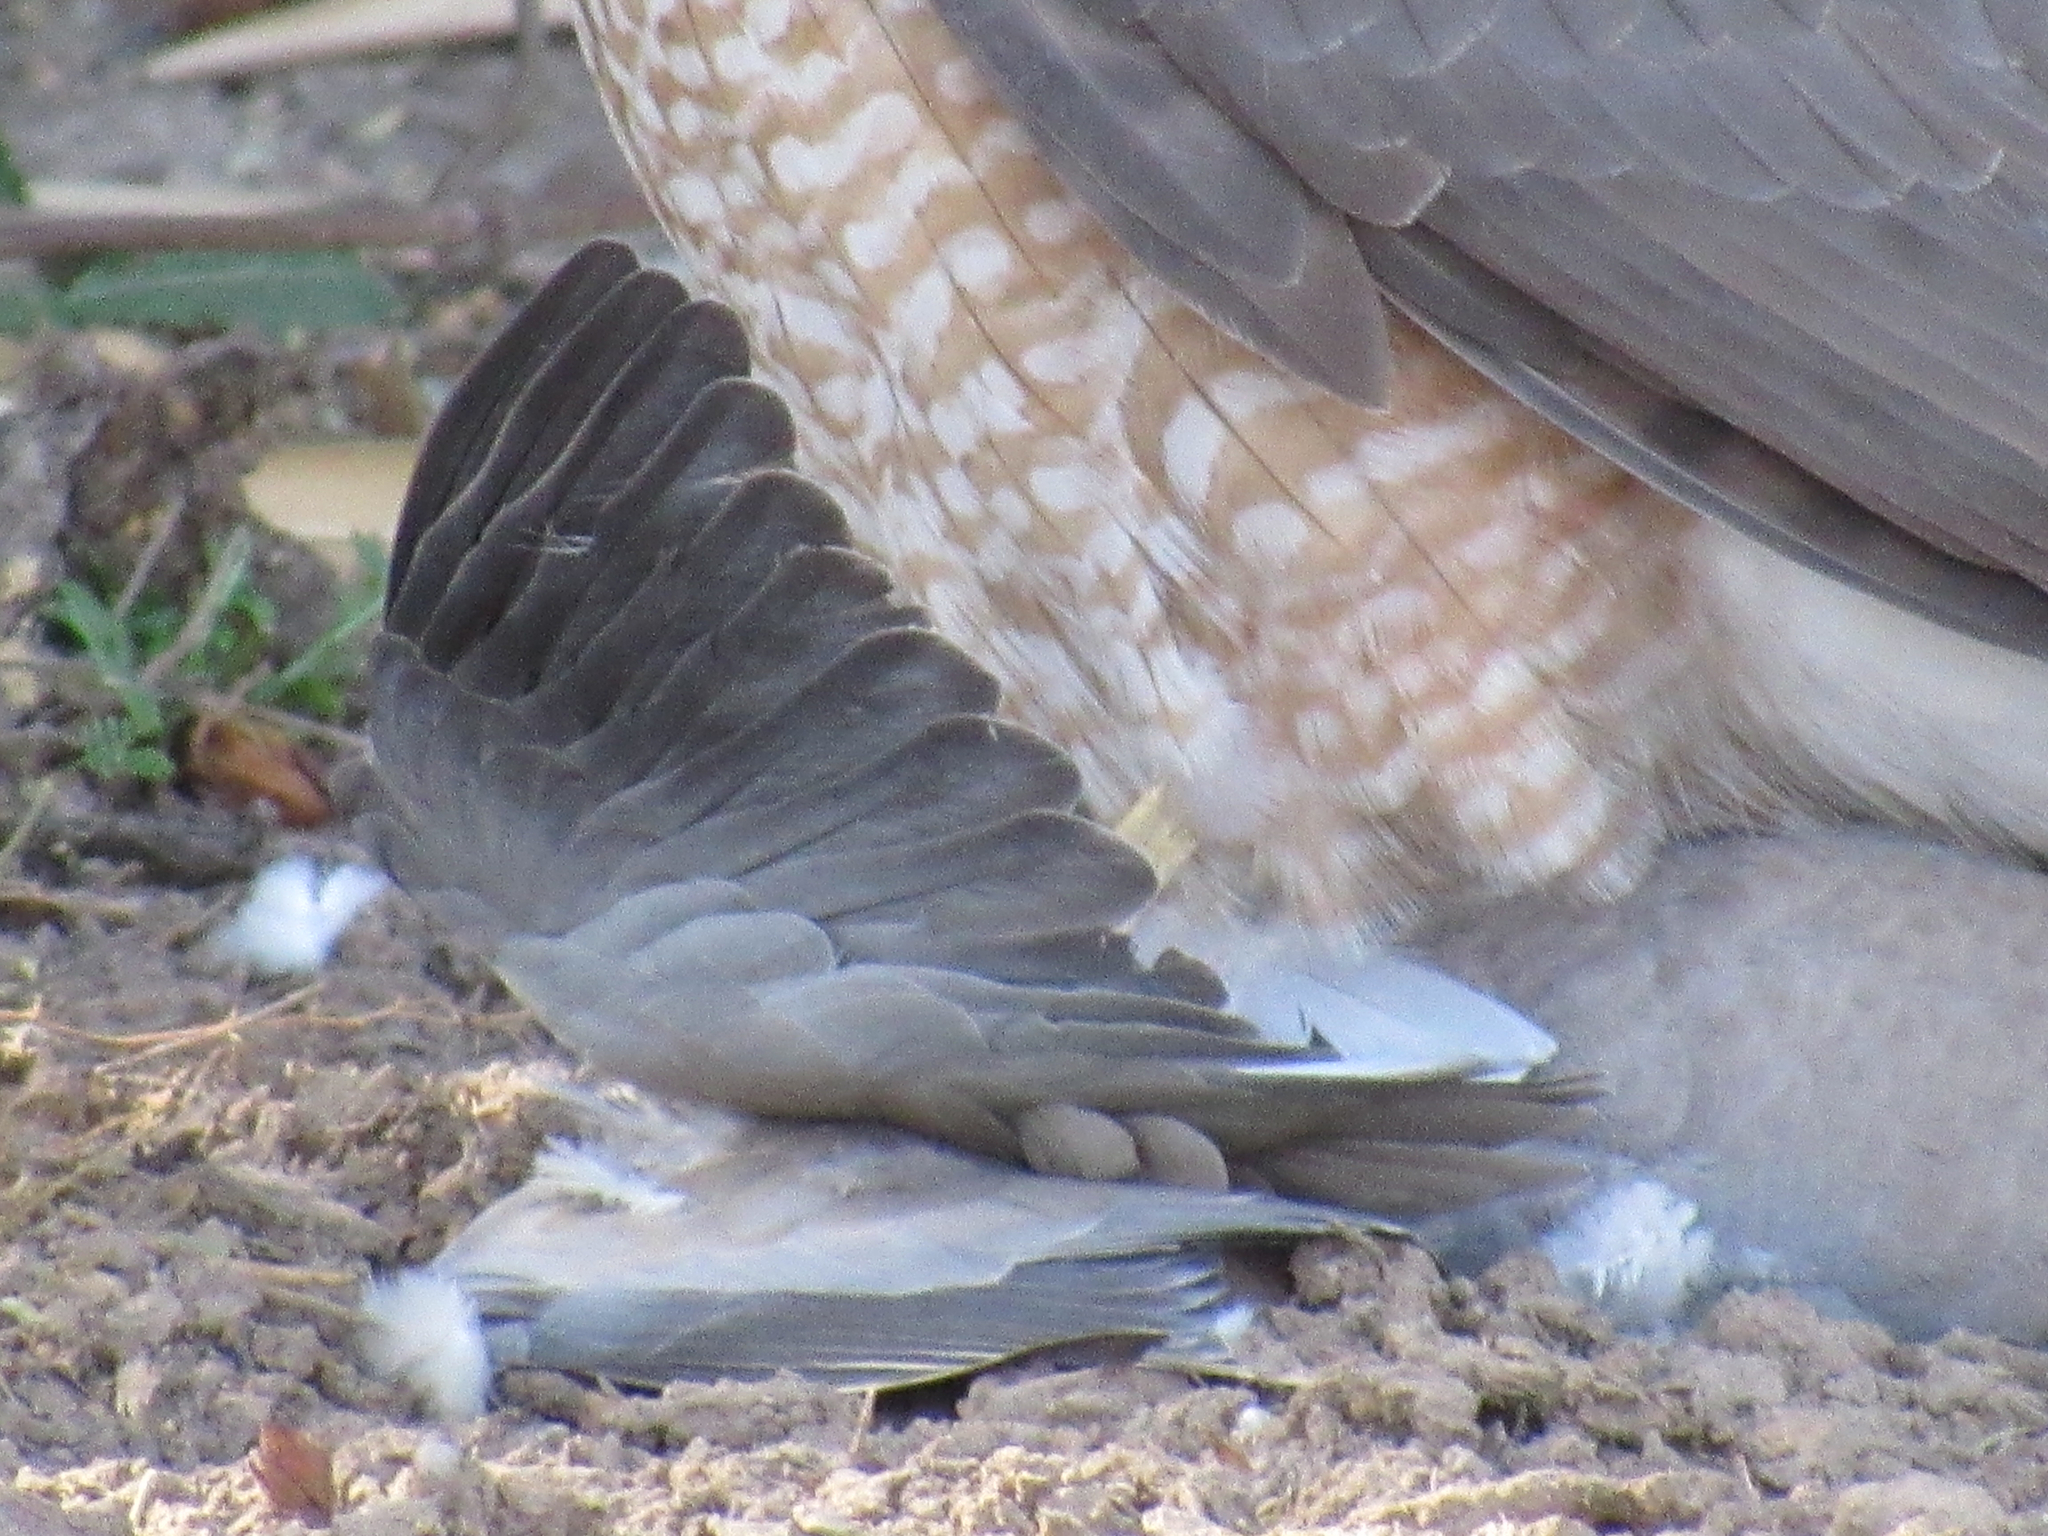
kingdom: Animalia
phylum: Chordata
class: Aves
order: Columbiformes
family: Columbidae
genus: Streptopelia
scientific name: Streptopelia decaocto
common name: Eurasian collared dove
